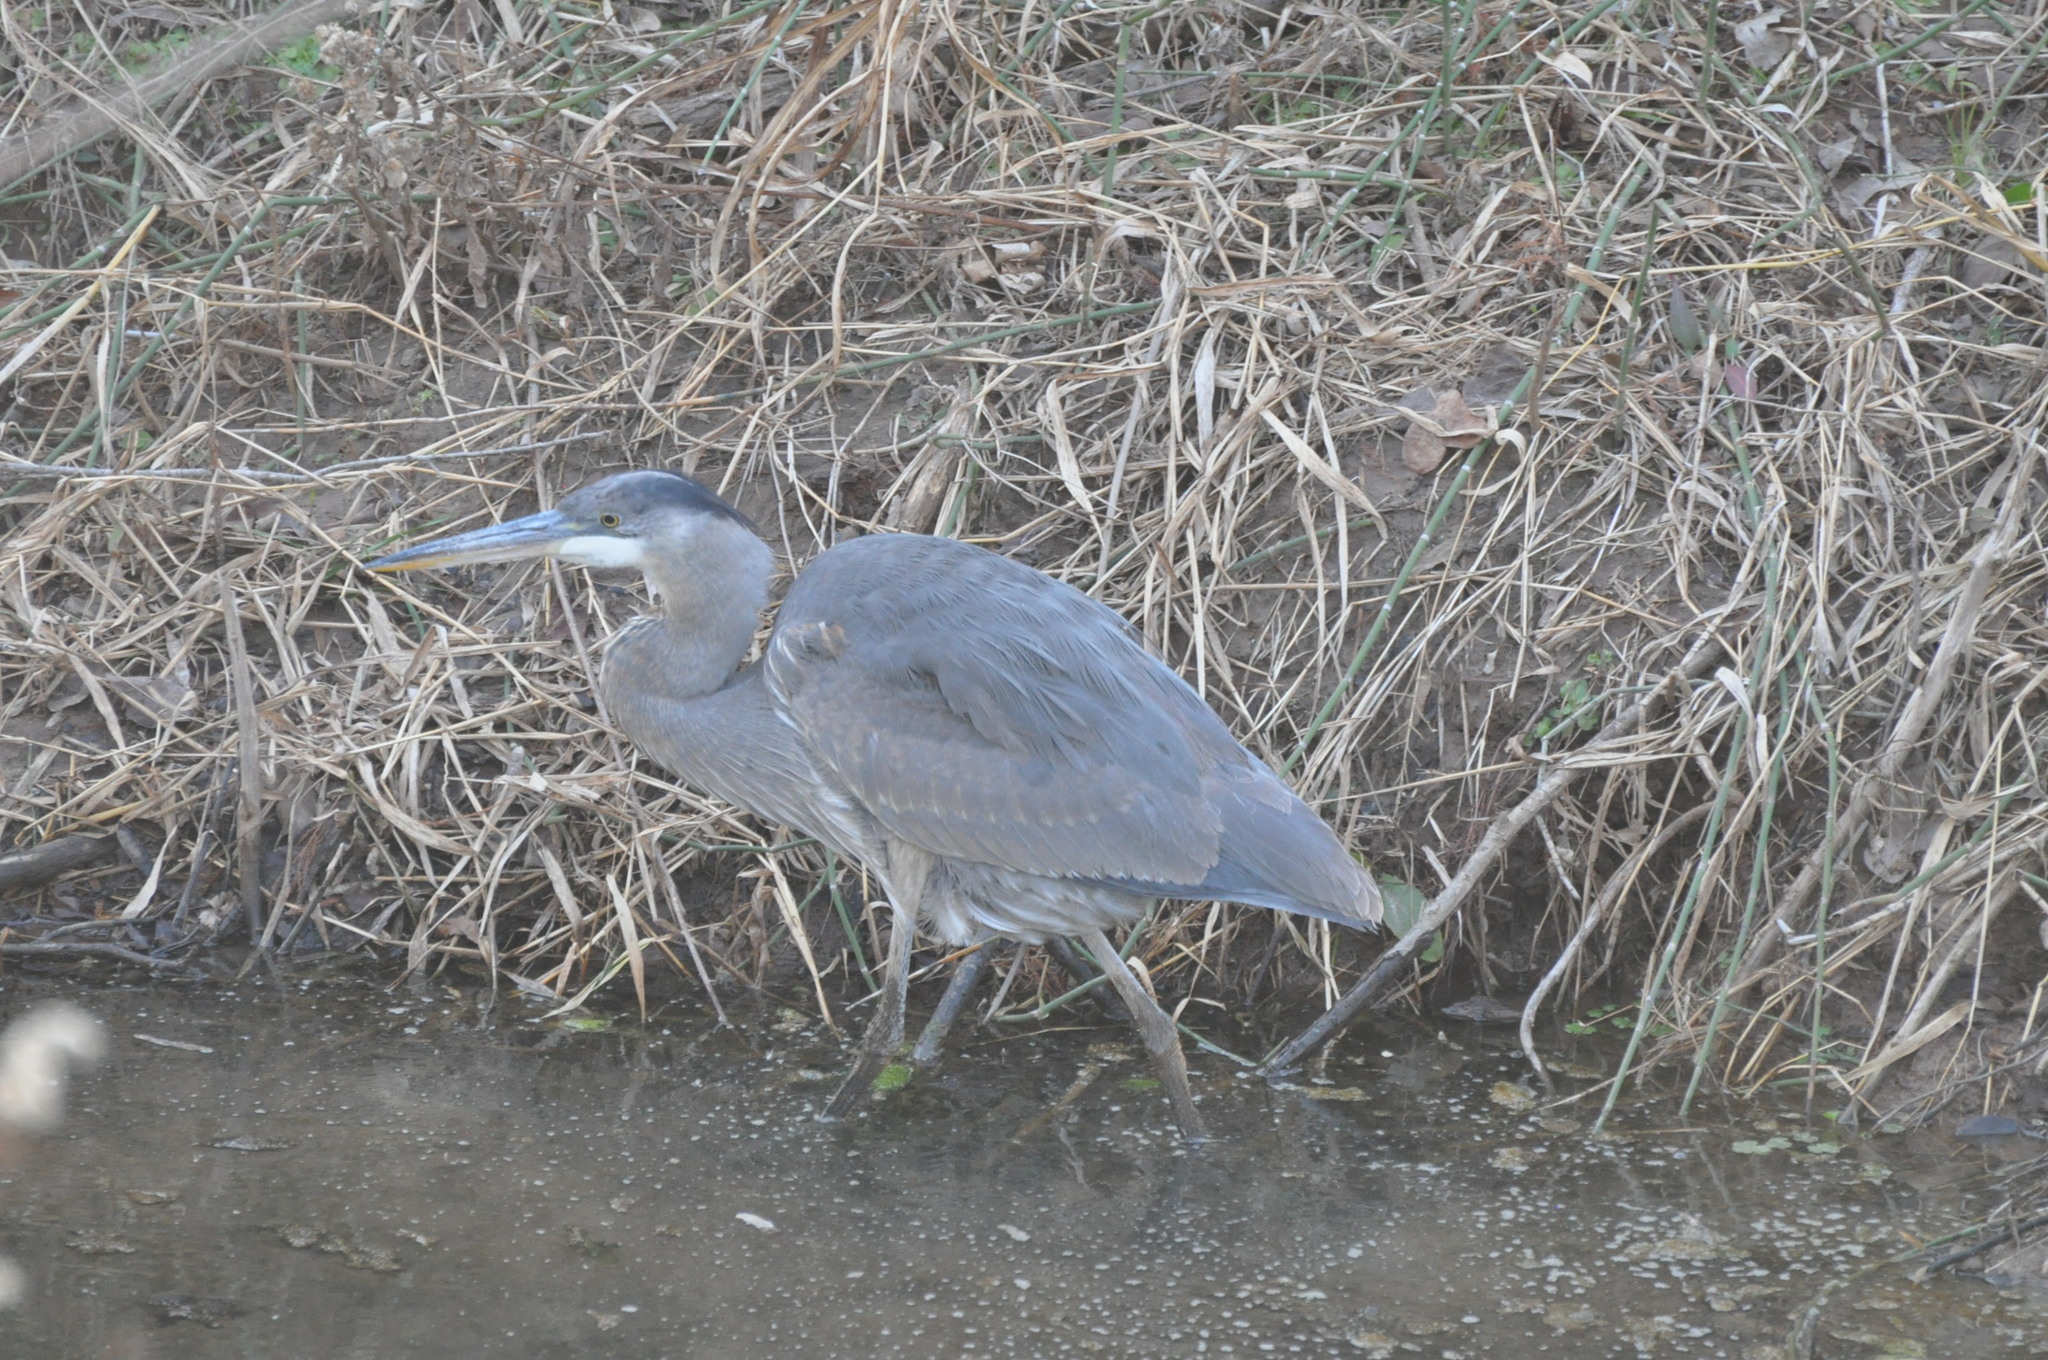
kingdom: Animalia
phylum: Chordata
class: Aves
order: Pelecaniformes
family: Ardeidae
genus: Ardea
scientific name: Ardea herodias
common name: Great blue heron
